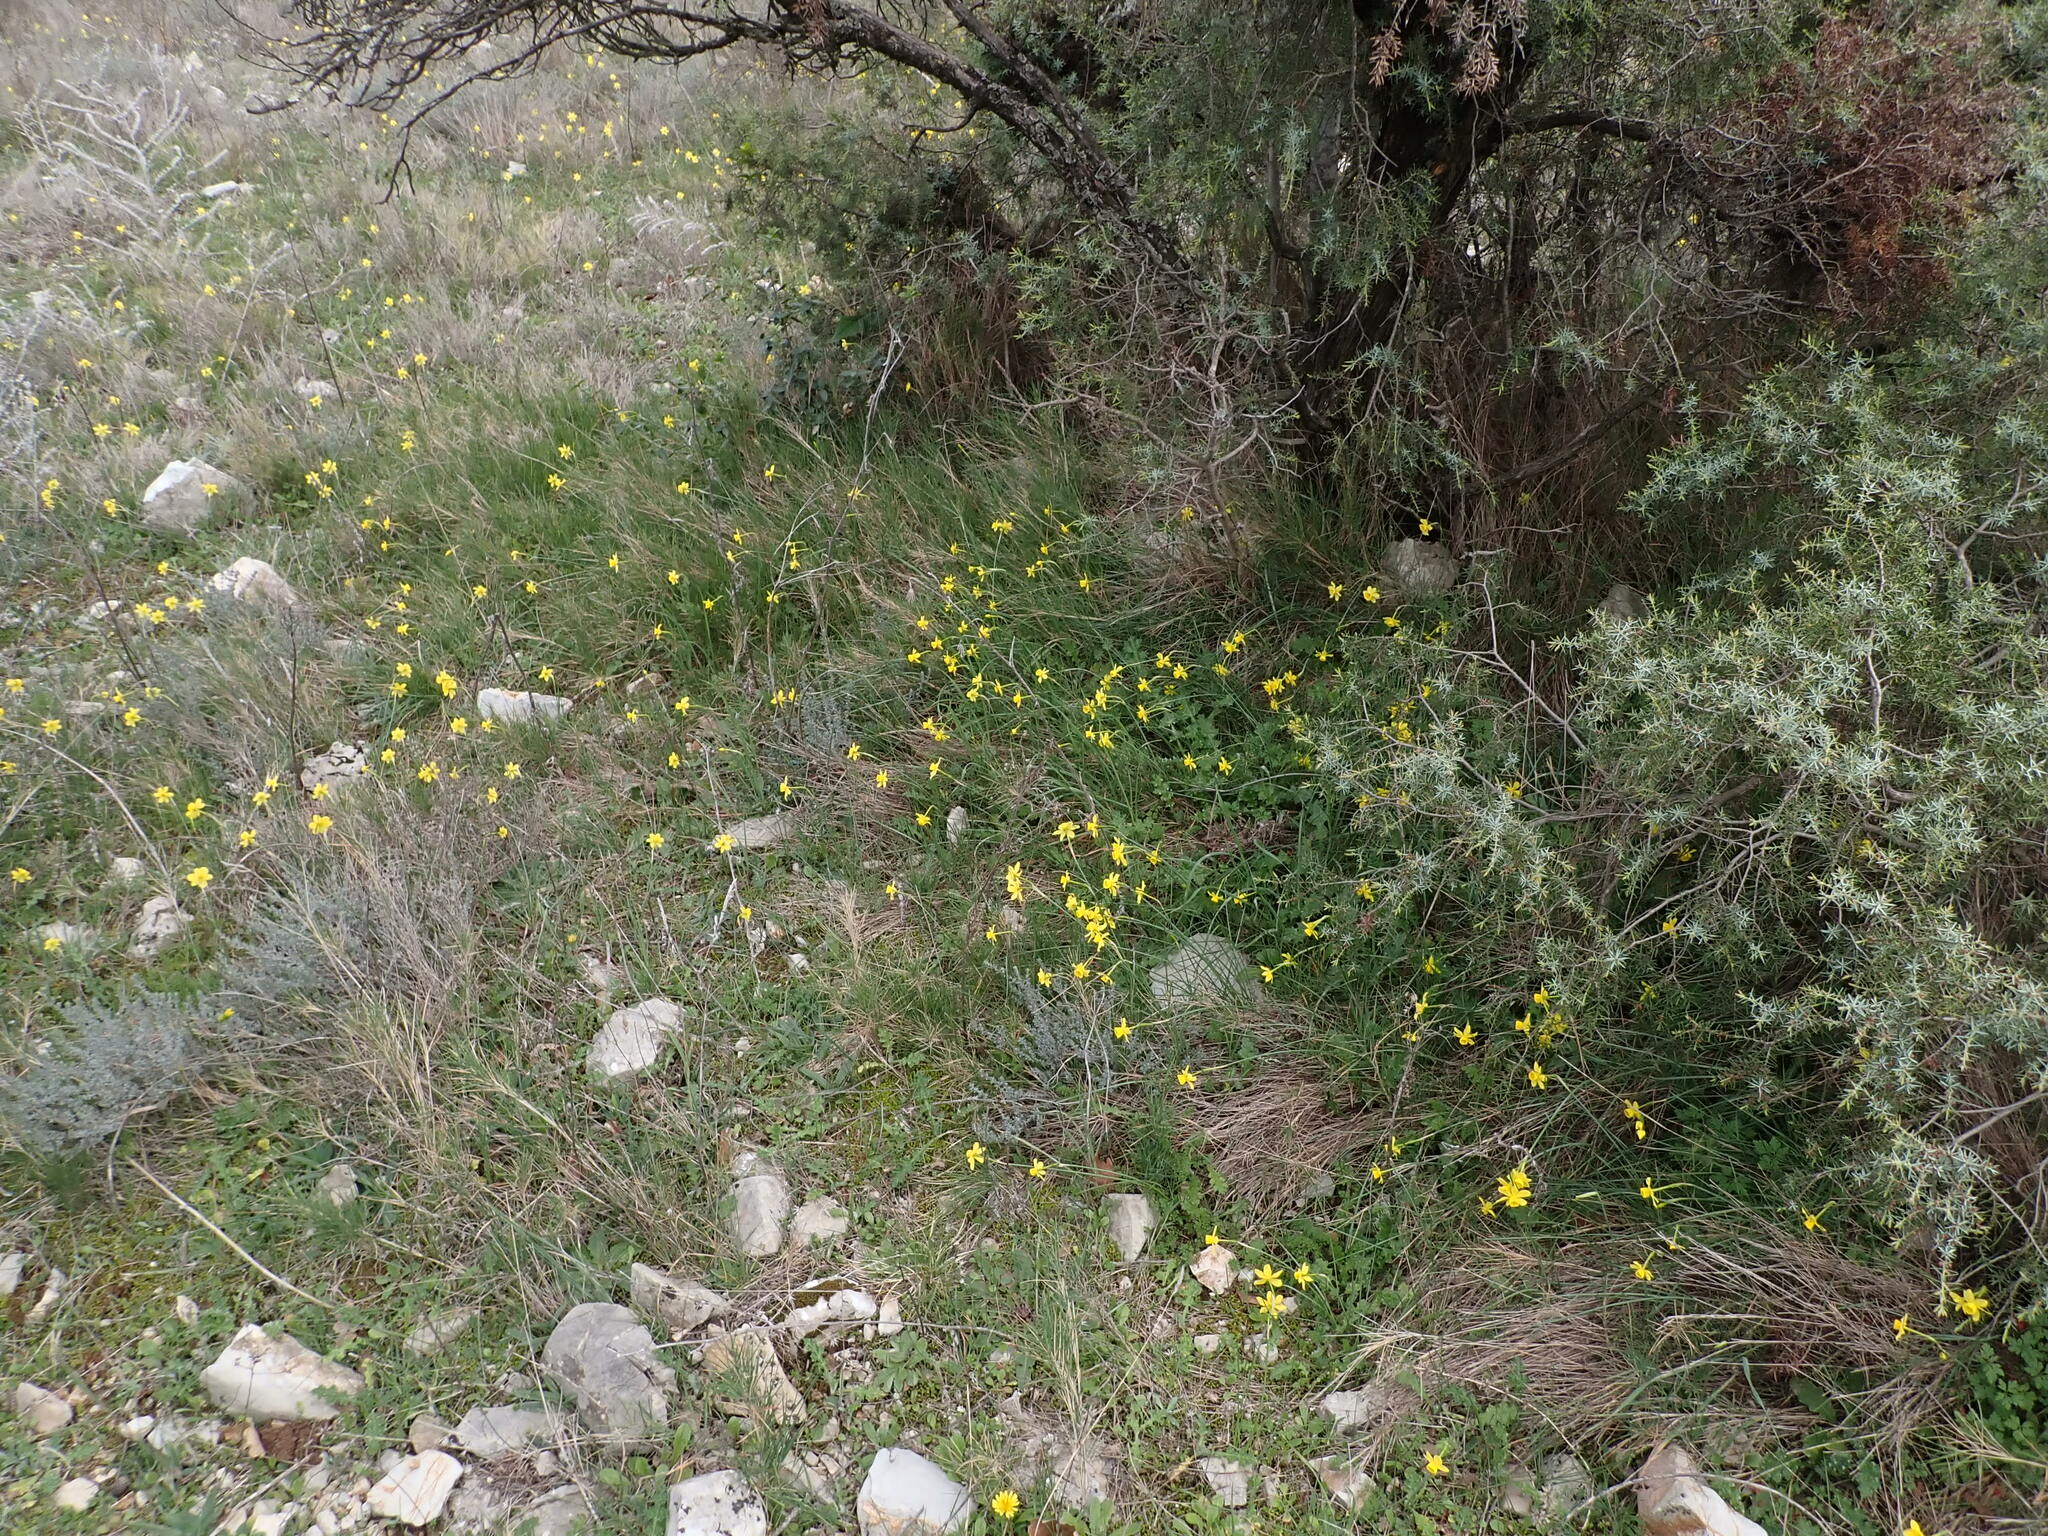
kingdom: Plantae
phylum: Tracheophyta
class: Liliopsida
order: Asparagales
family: Amaryllidaceae
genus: Narcissus
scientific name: Narcissus assoanus
